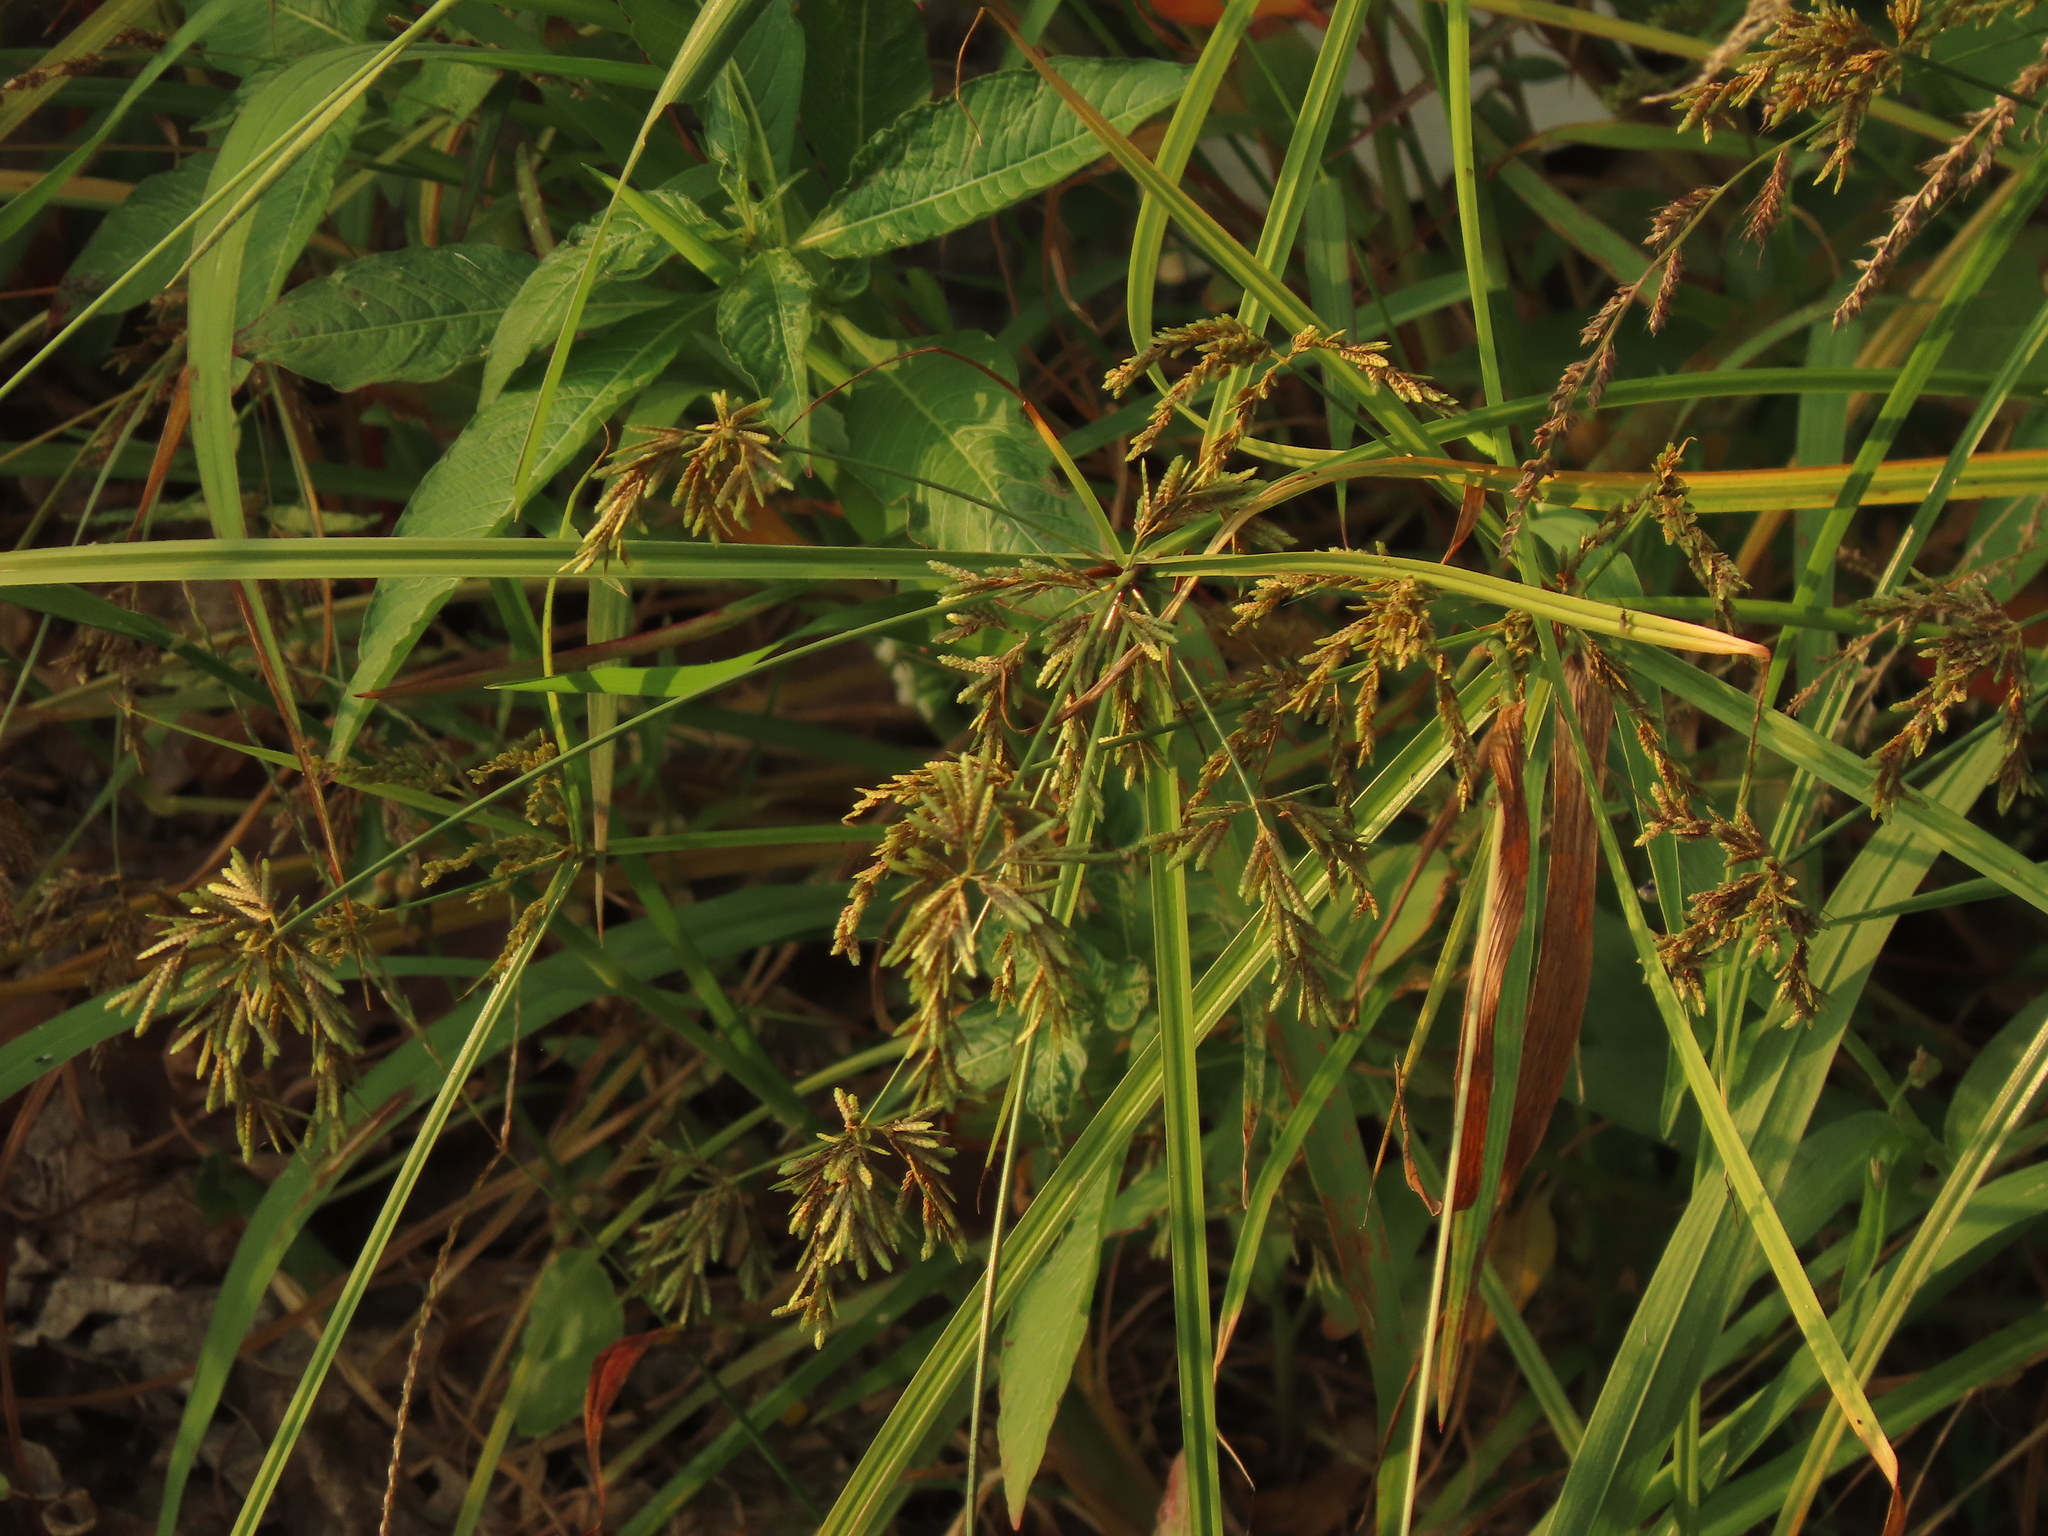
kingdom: Plantae
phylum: Tracheophyta
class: Liliopsida
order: Poales
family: Cyperaceae
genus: Cyperus
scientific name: Cyperus iria
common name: Ricefield flatsedge
